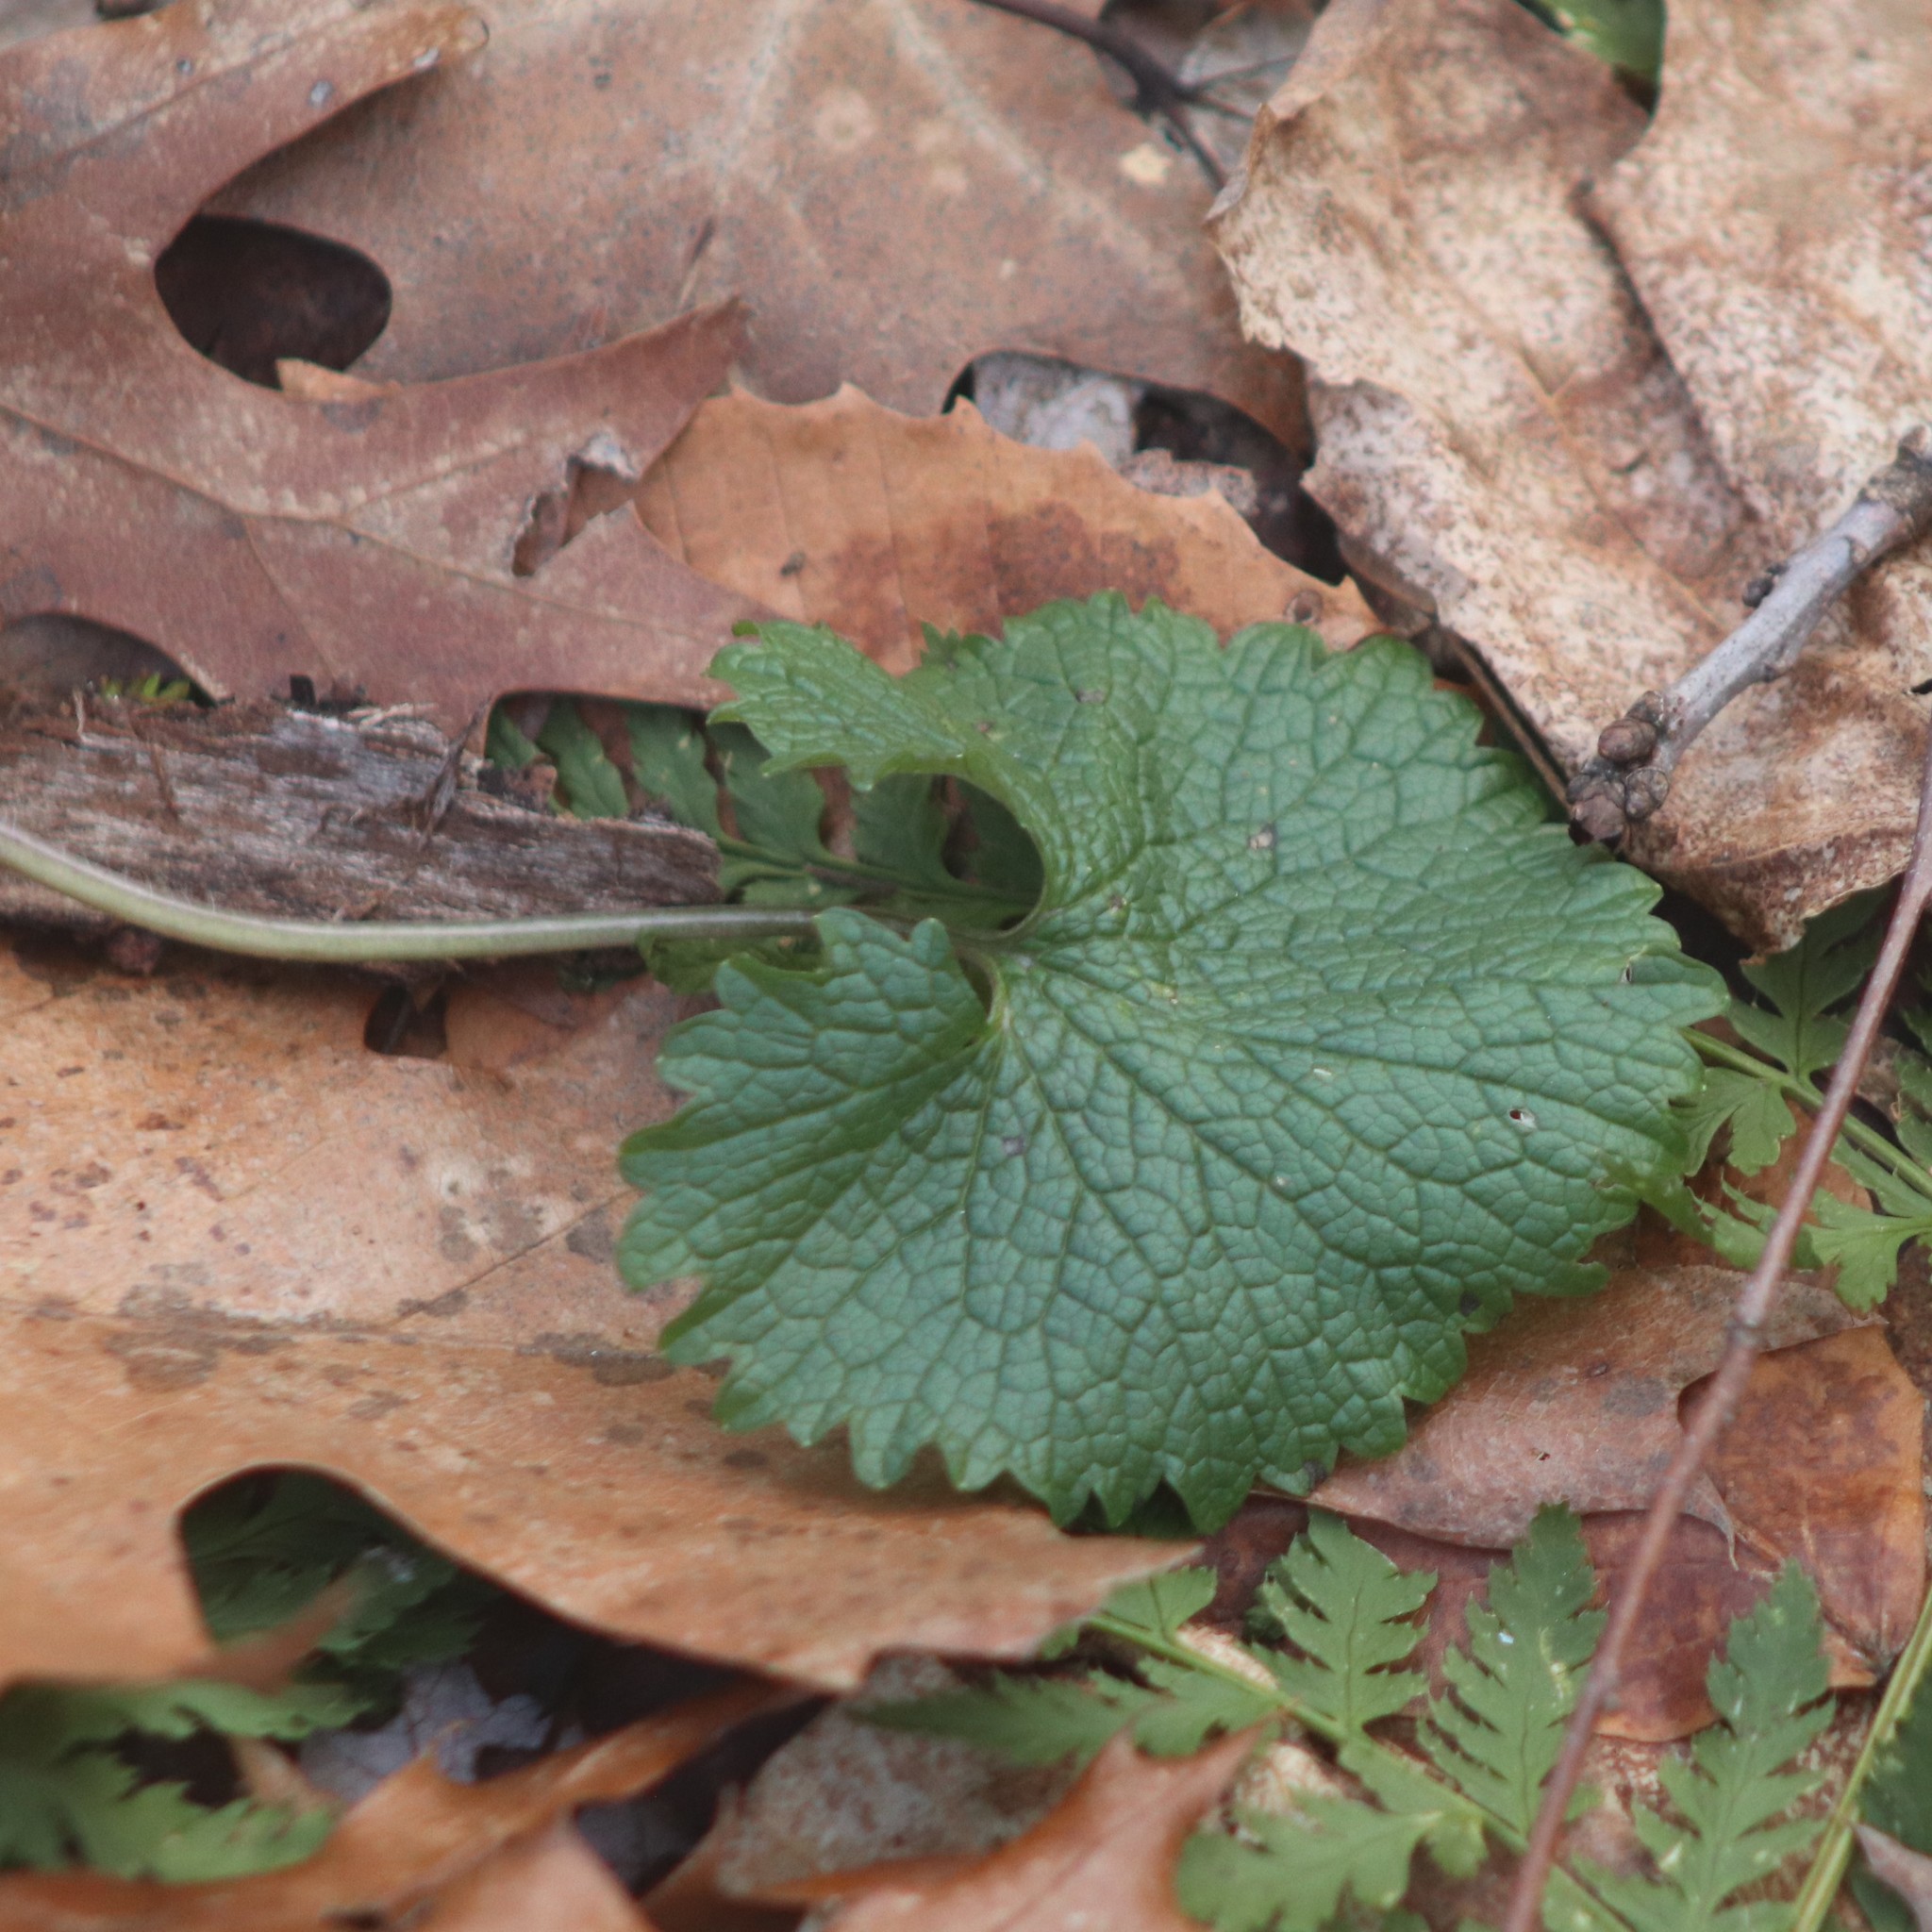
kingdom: Plantae
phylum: Tracheophyta
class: Magnoliopsida
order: Brassicales
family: Brassicaceae
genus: Alliaria
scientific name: Alliaria petiolata
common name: Garlic mustard
